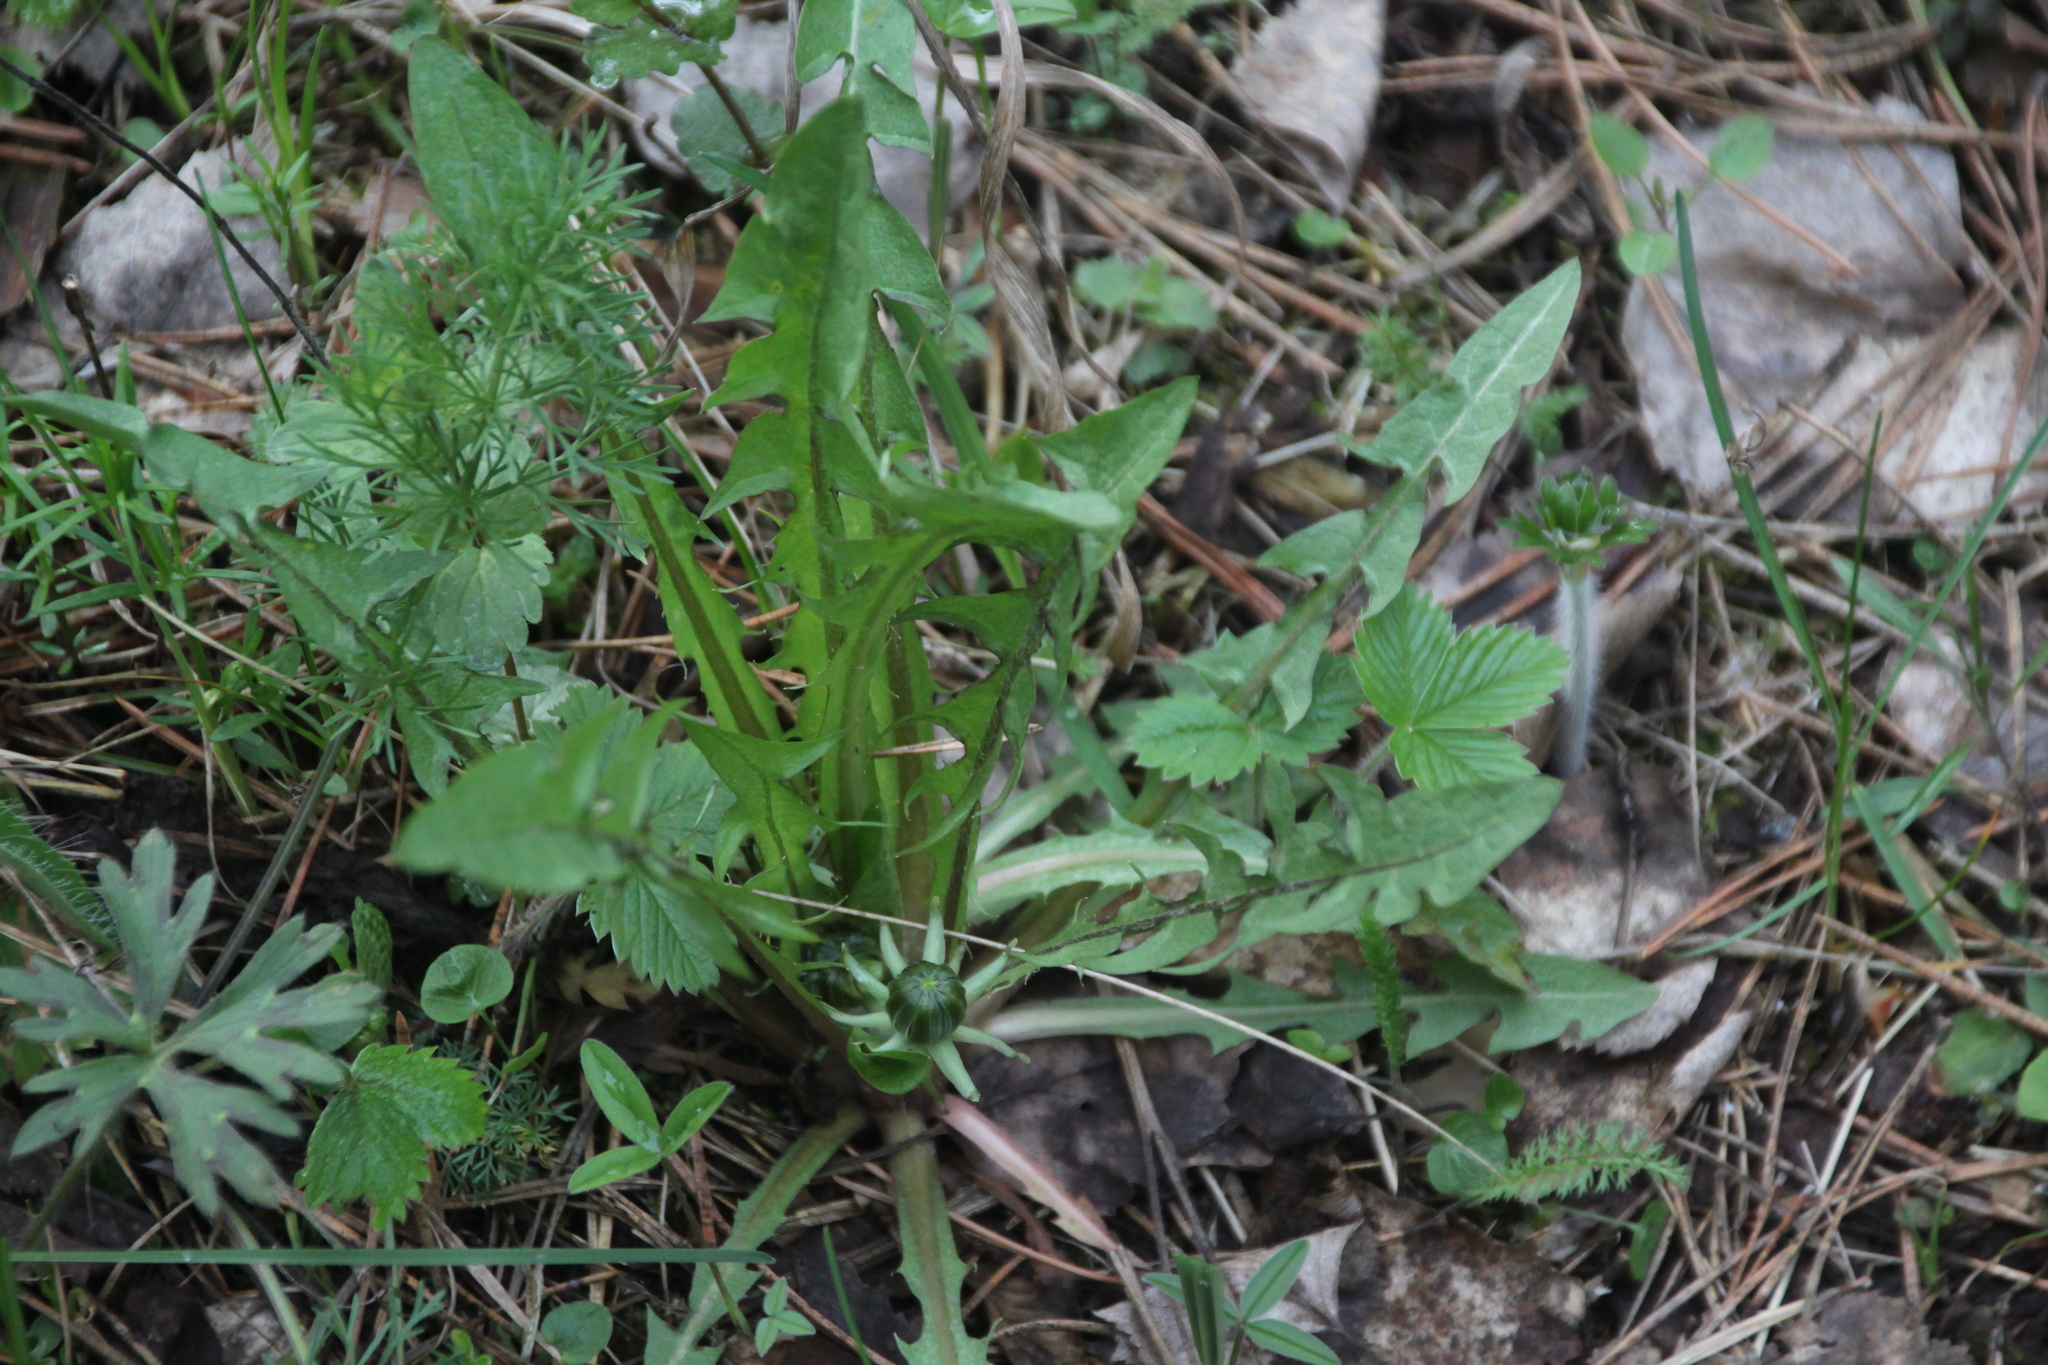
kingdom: Plantae
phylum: Tracheophyta
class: Magnoliopsida
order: Asterales
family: Asteraceae
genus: Taraxacum
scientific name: Taraxacum officinale
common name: Common dandelion
